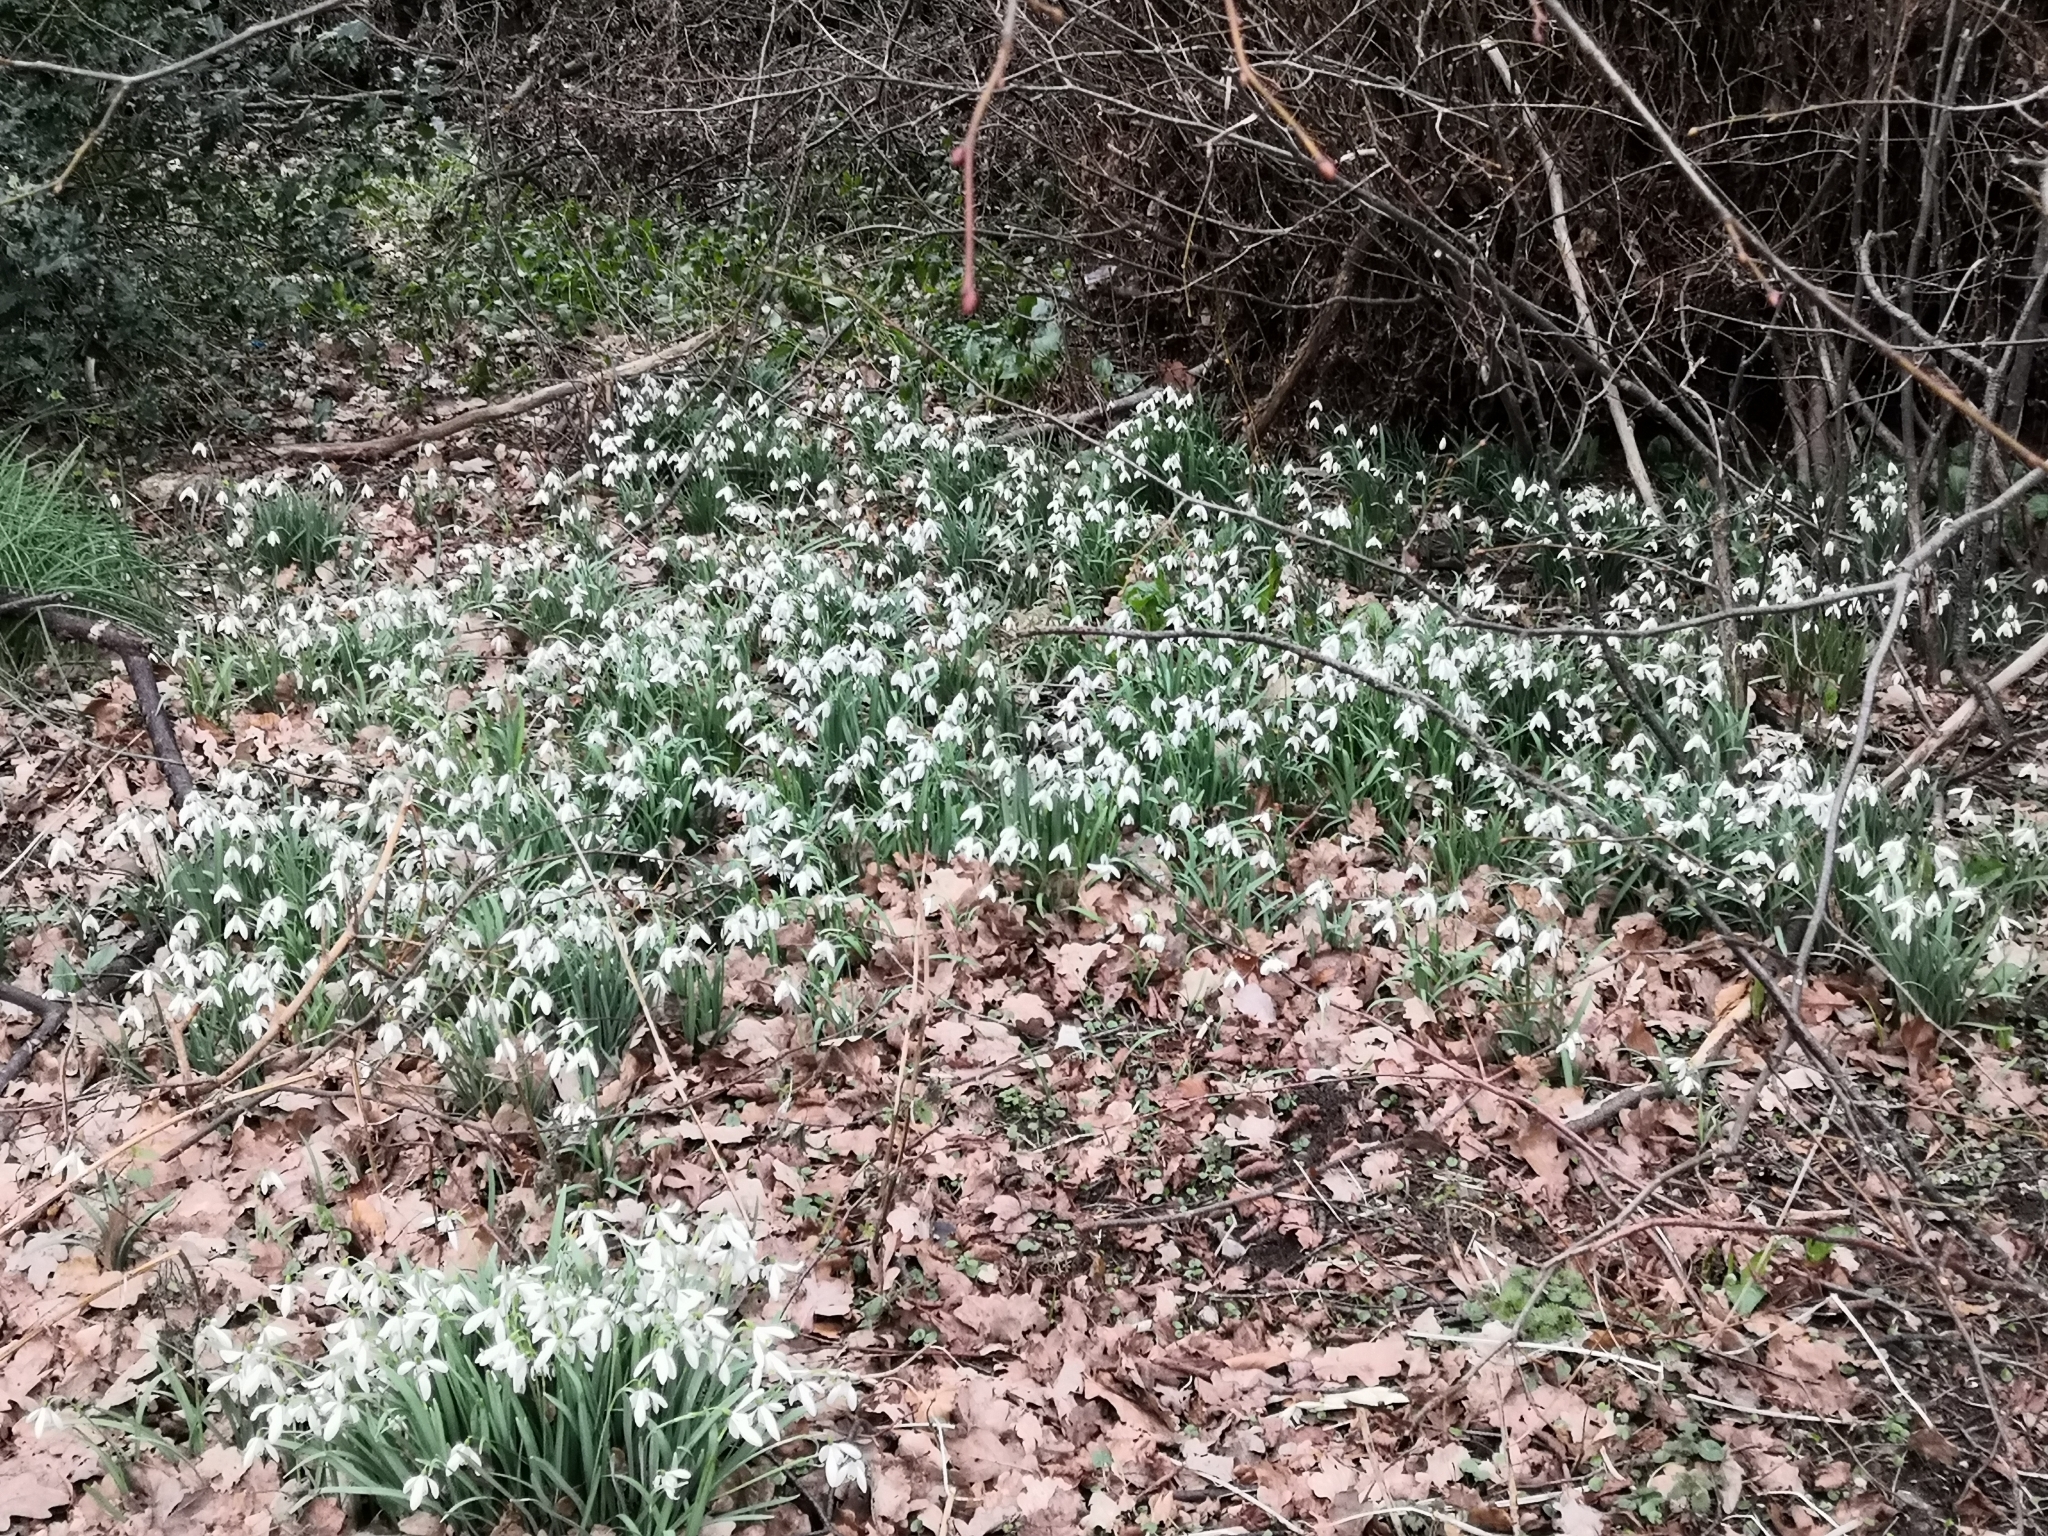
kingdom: Plantae
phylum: Tracheophyta
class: Liliopsida
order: Asparagales
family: Amaryllidaceae
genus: Galanthus
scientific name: Galanthus nivalis
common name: Snowdrop
